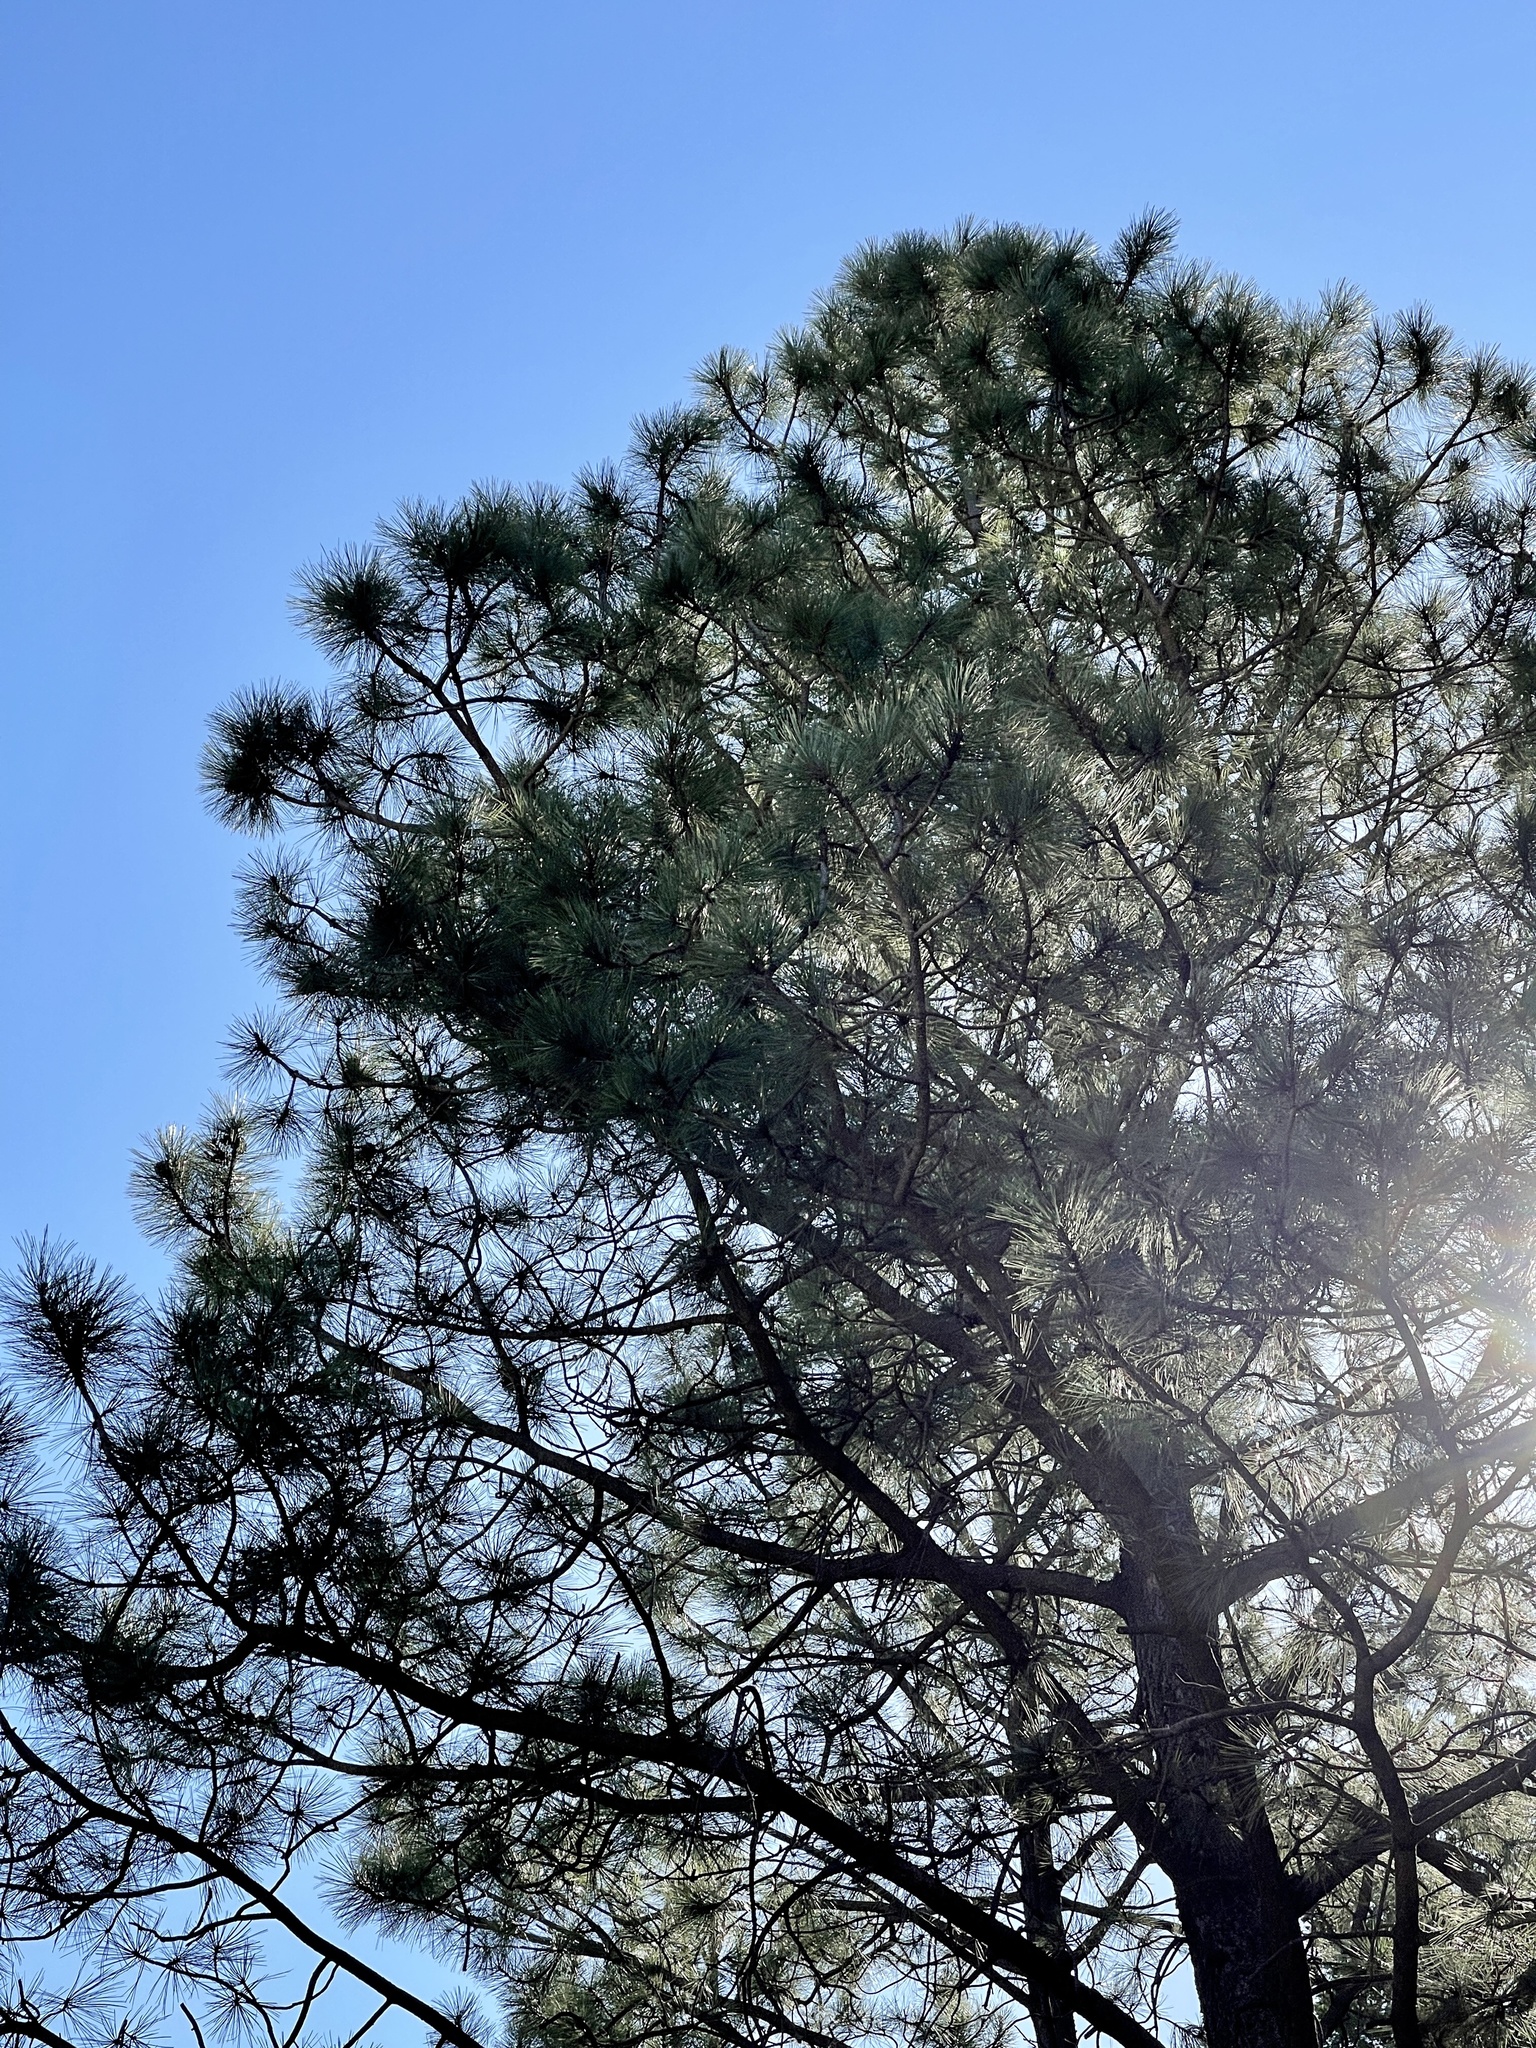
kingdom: Plantae
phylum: Tracheophyta
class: Pinopsida
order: Pinales
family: Pinaceae
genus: Pinus
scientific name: Pinus ponderosa
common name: Western yellow-pine
